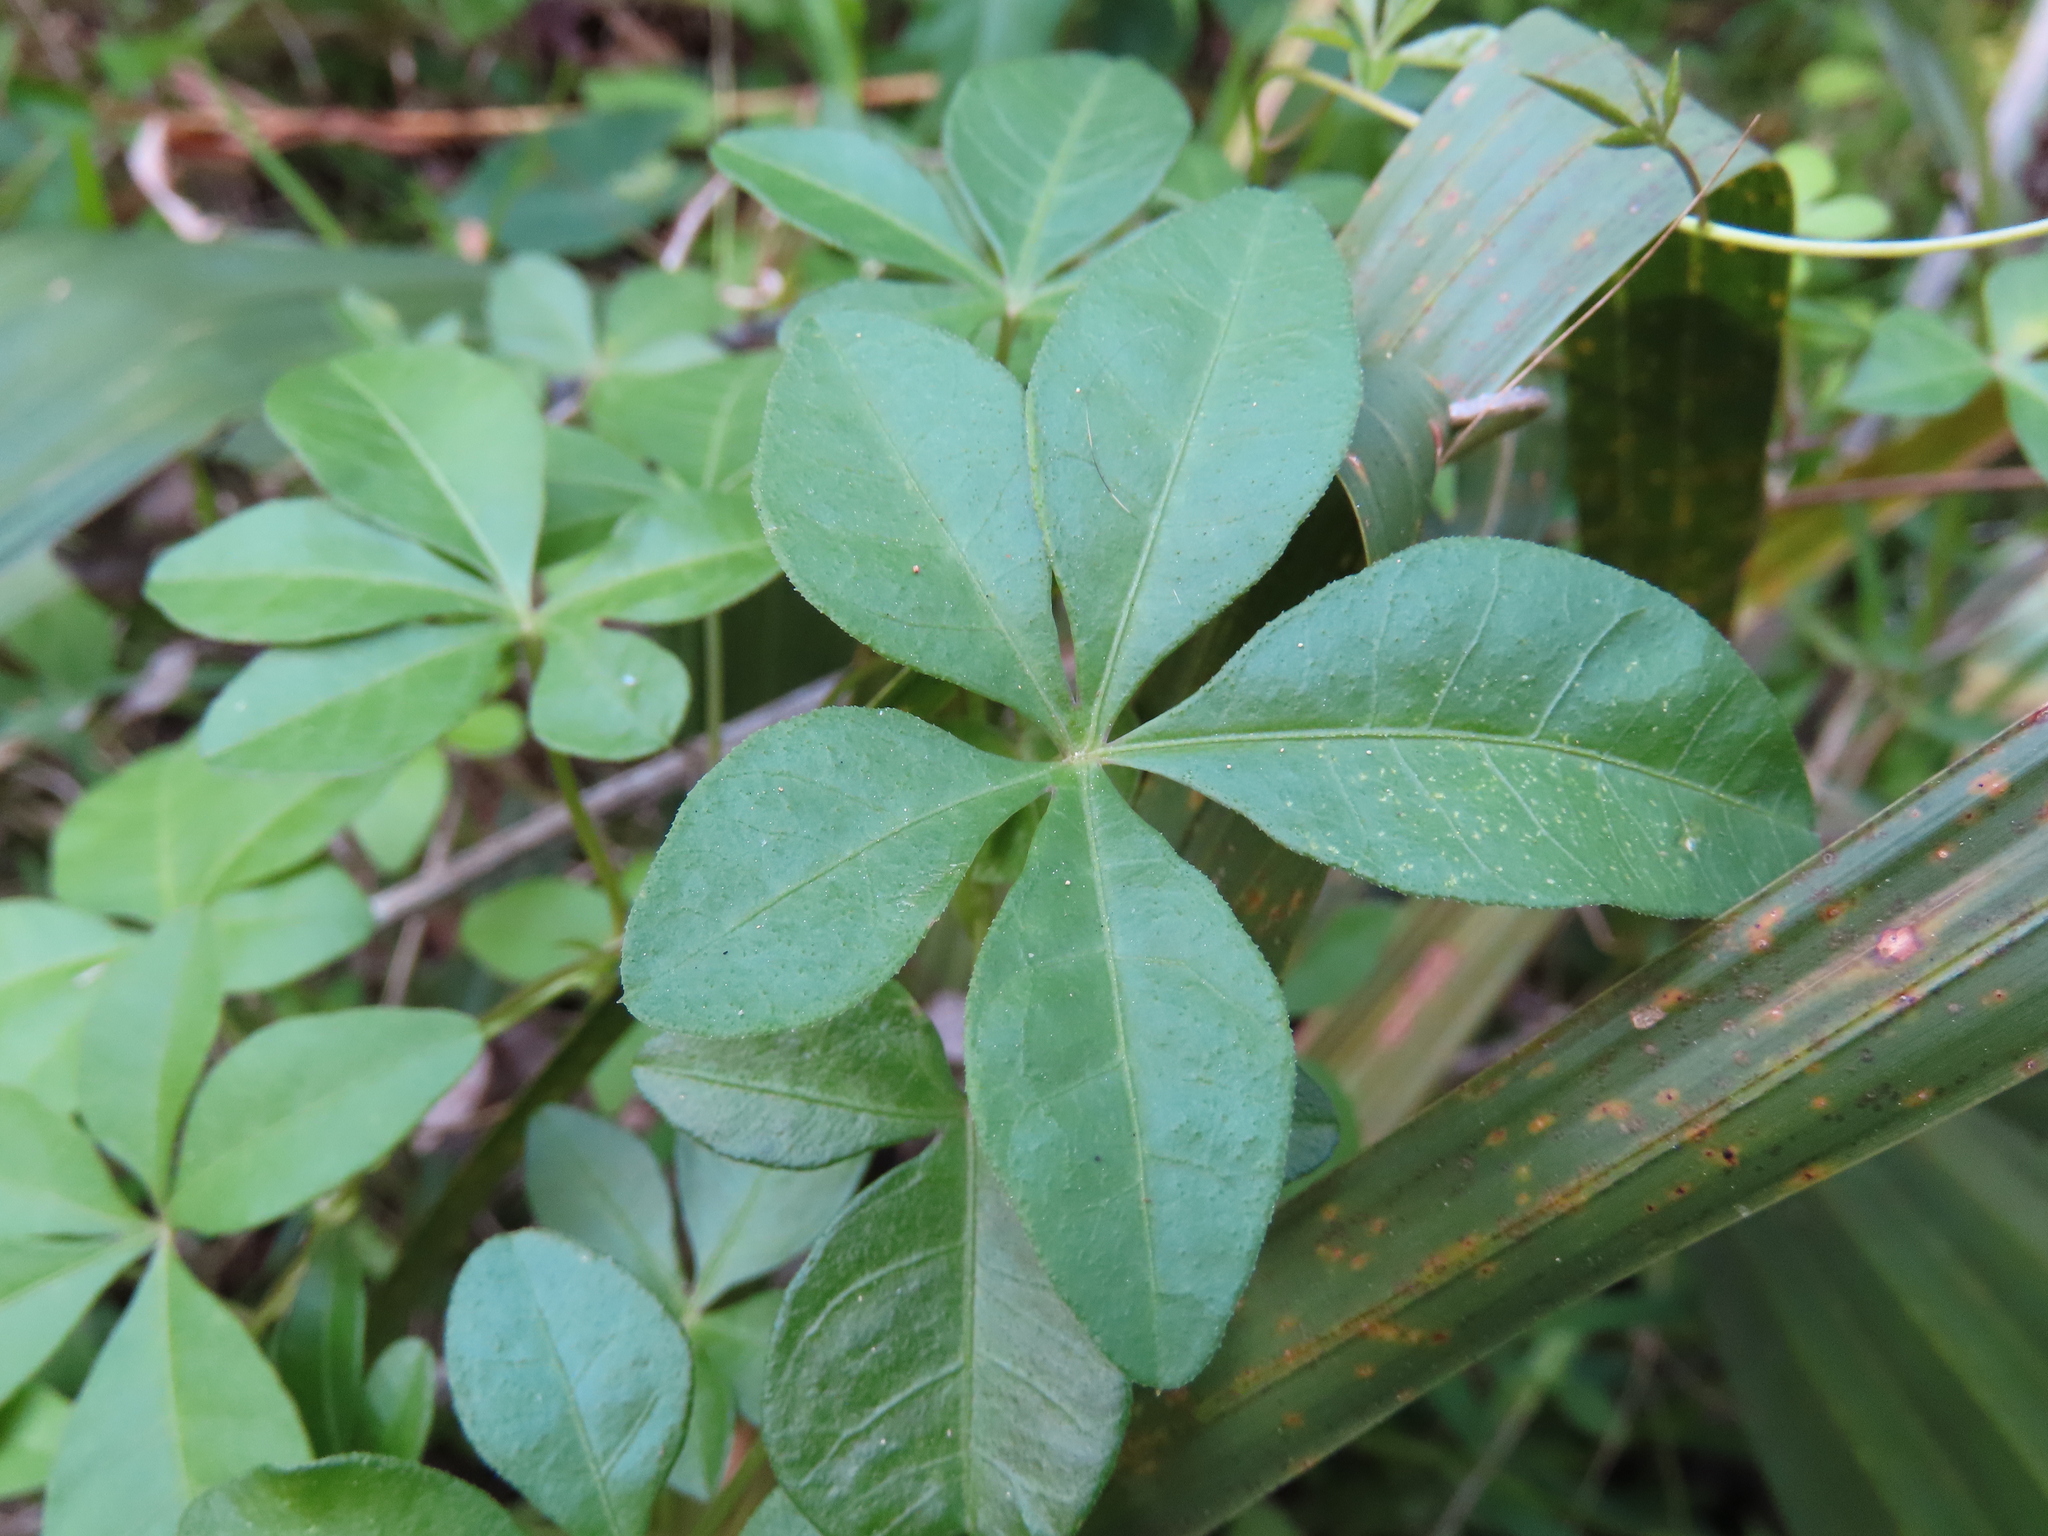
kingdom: Plantae
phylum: Tracheophyta
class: Magnoliopsida
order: Solanales
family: Convolvulaceae
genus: Ipomoea
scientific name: Ipomoea cairica
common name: Mile a minute vine
